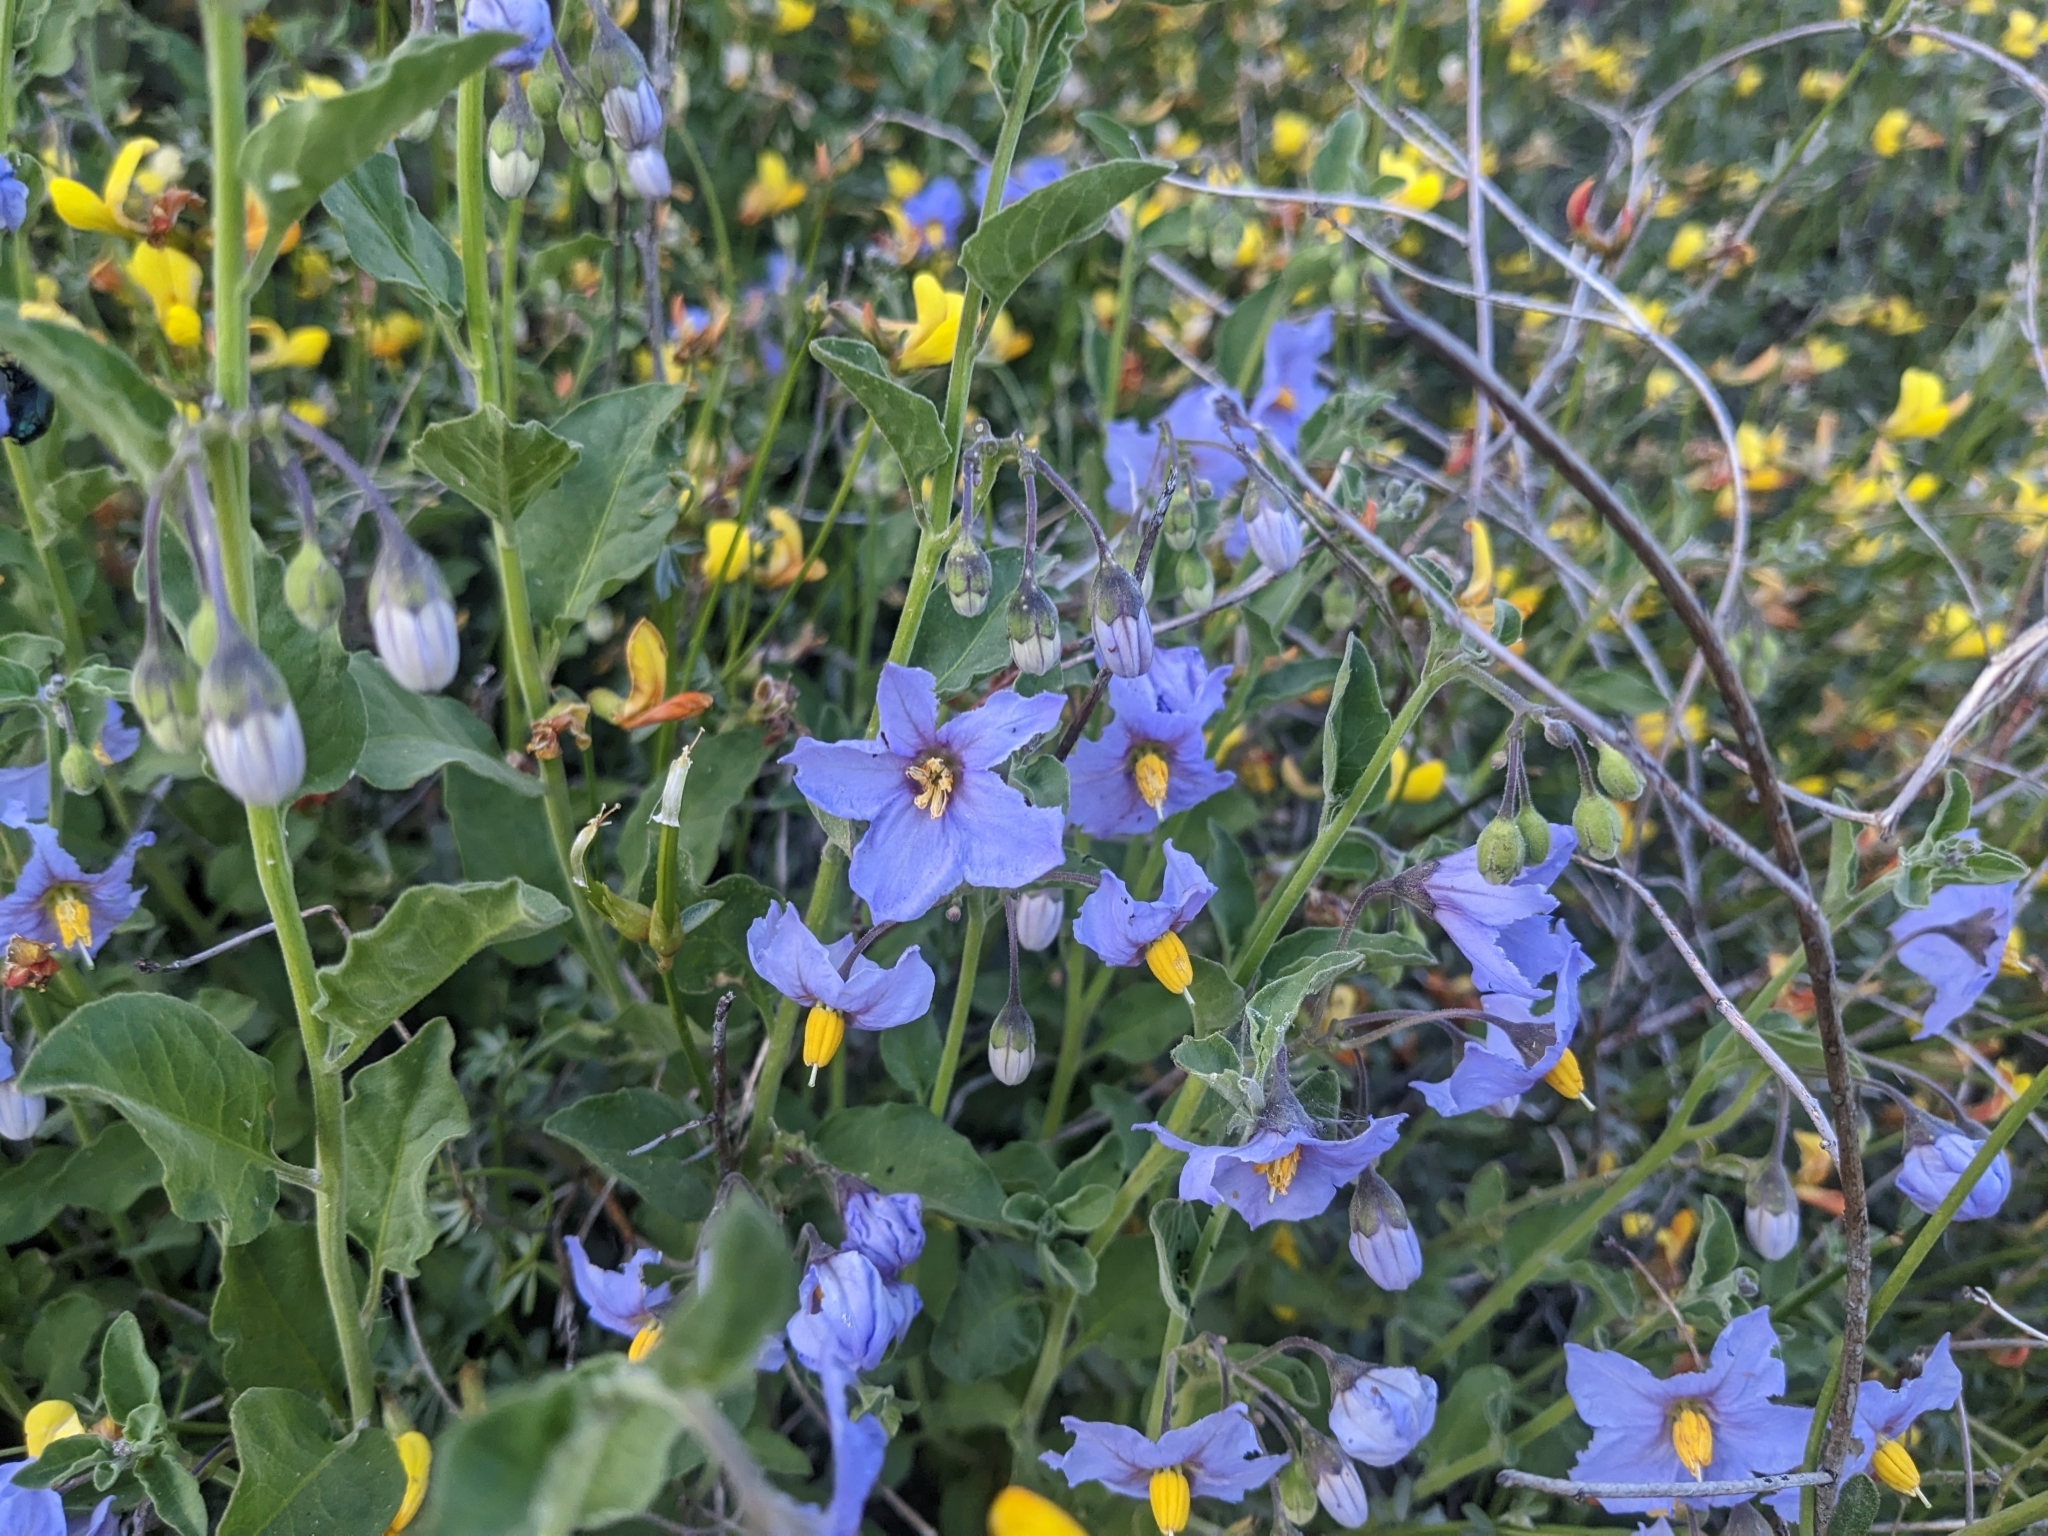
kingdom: Plantae
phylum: Tracheophyta
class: Magnoliopsida
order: Solanales
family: Solanaceae
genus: Solanum
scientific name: Solanum umbelliferum
